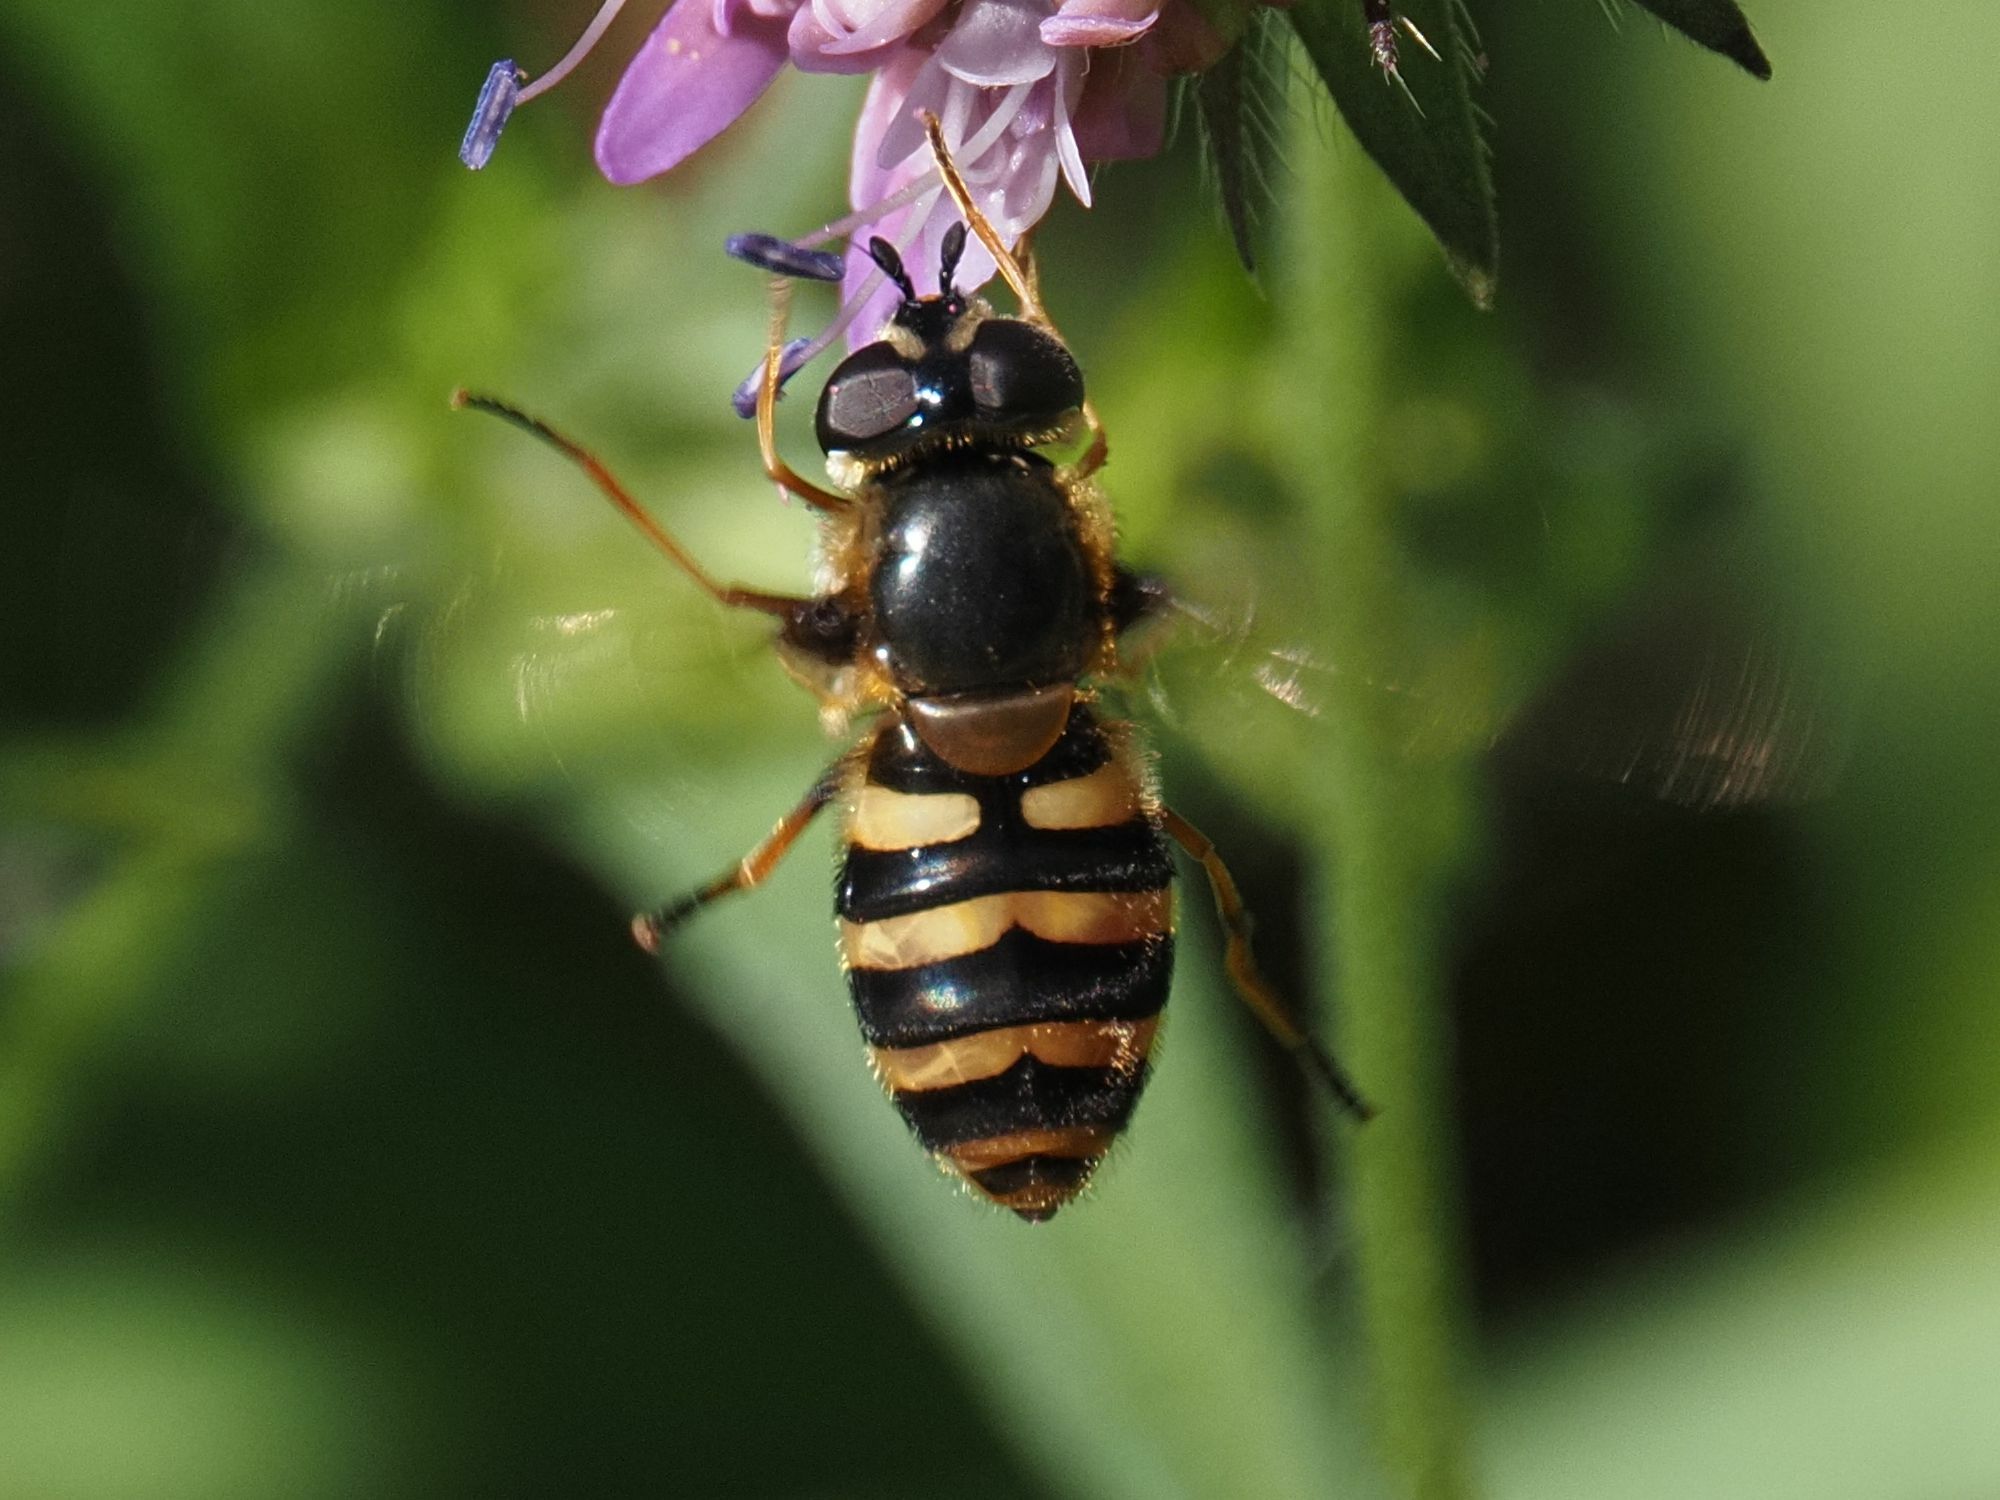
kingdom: Animalia
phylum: Arthropoda
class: Insecta
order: Diptera
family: Syrphidae
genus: Megasyrphus
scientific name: Megasyrphus erratica
